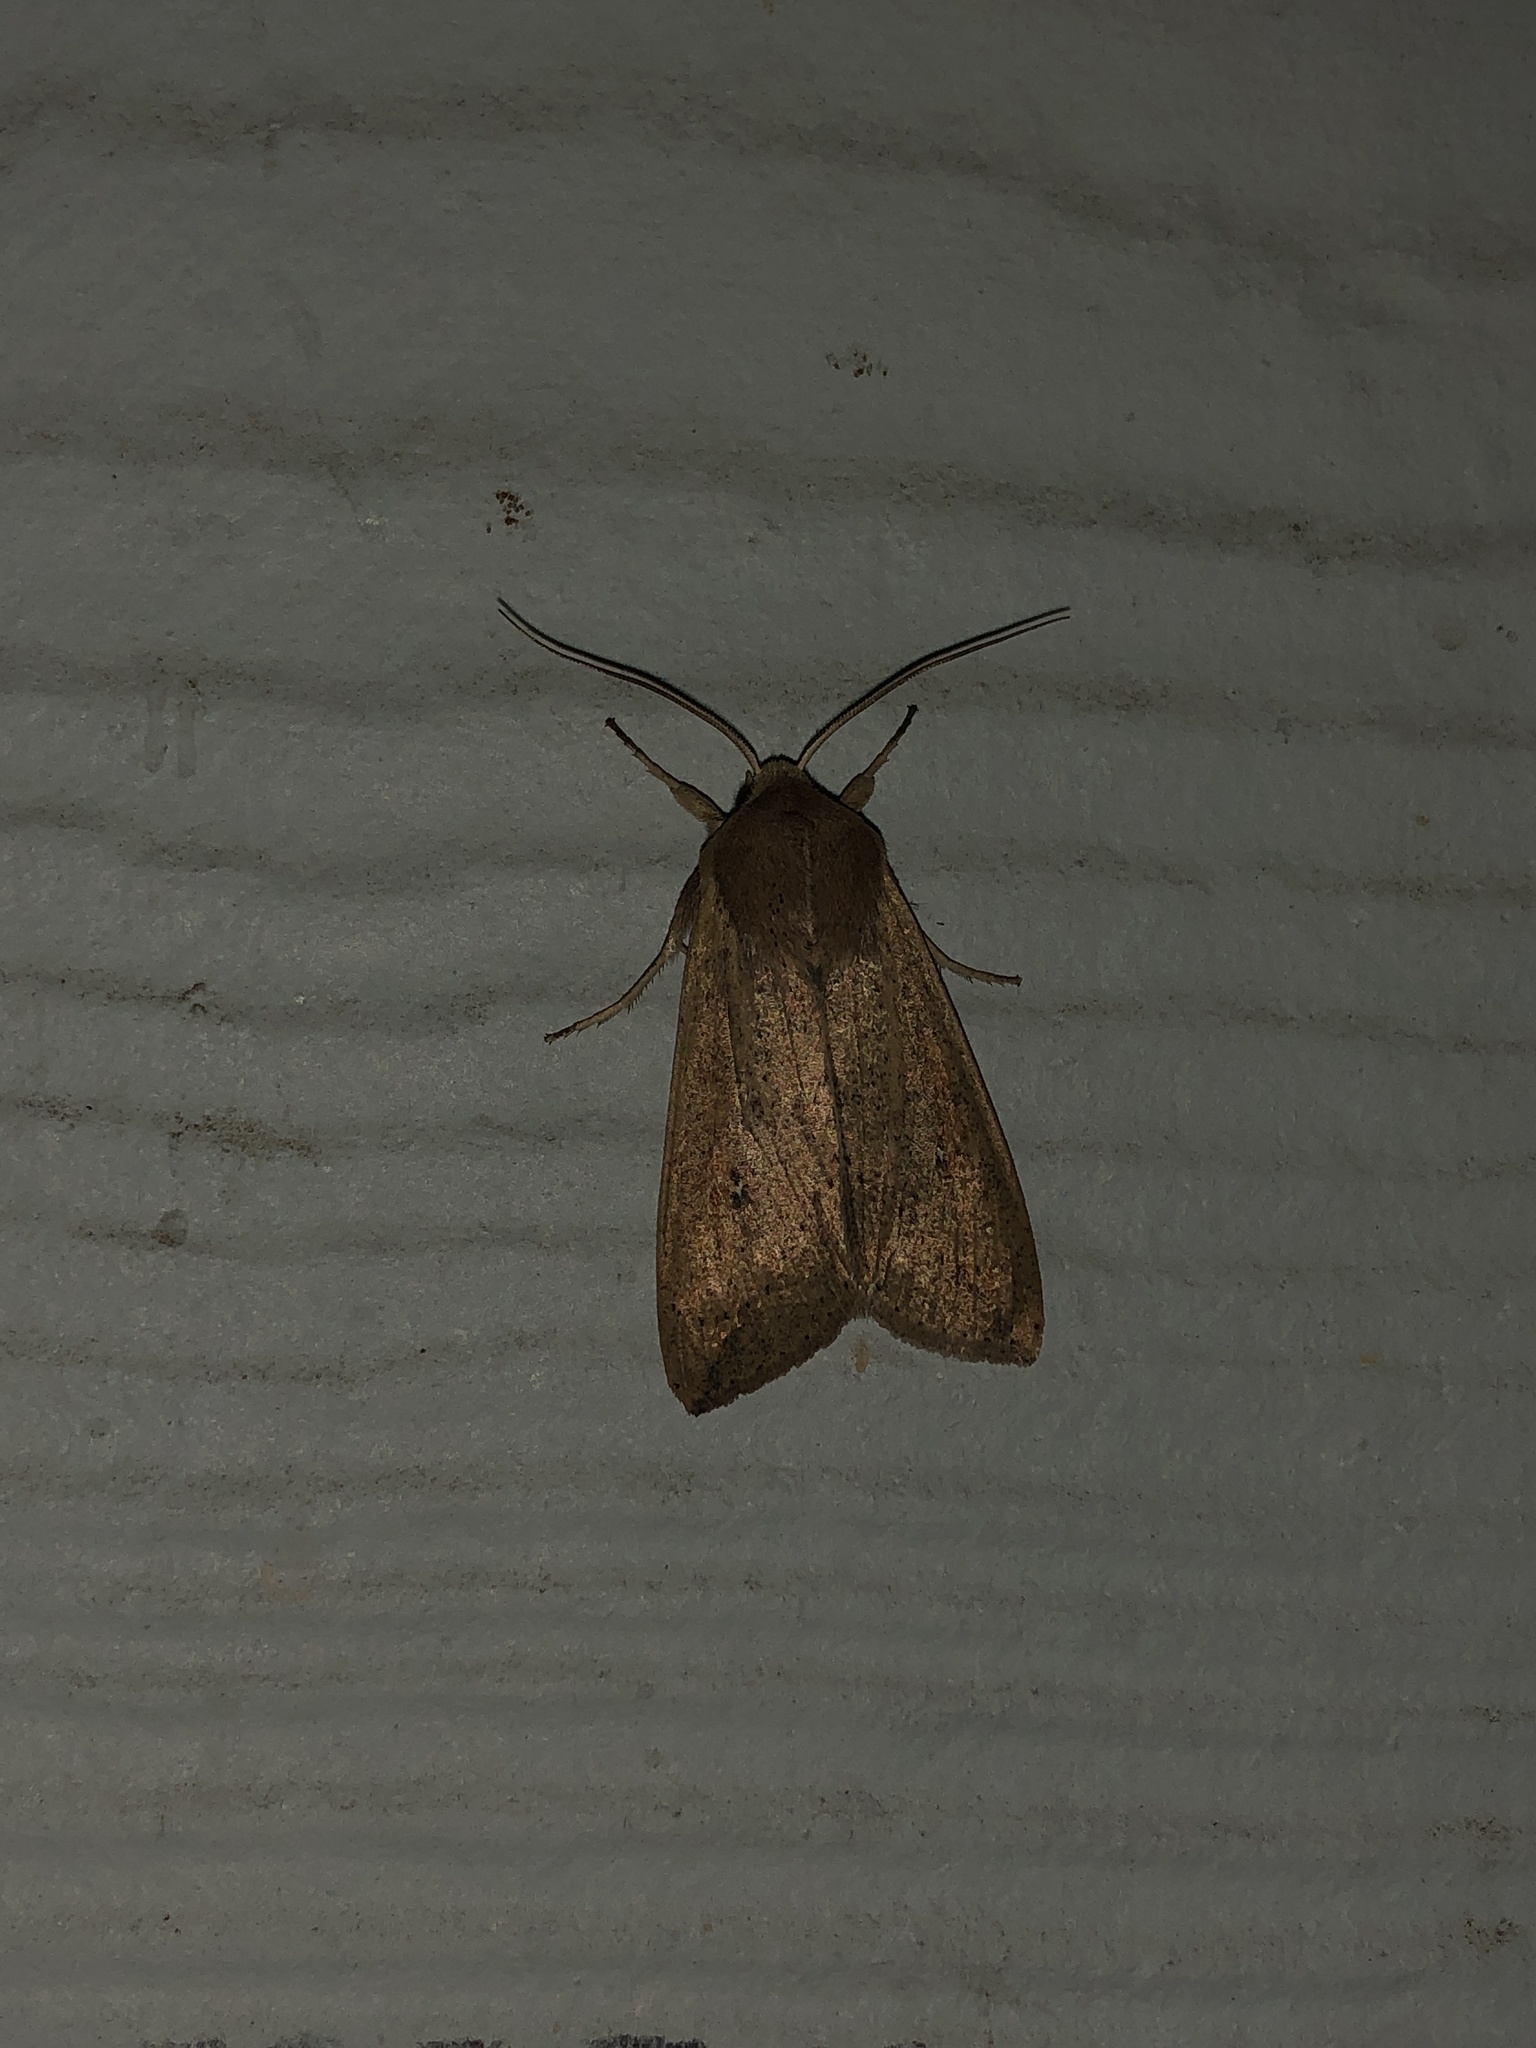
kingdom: Animalia
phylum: Arthropoda
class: Insecta
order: Lepidoptera
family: Noctuidae
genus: Mythimna
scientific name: Mythimna unipuncta
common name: White-speck
